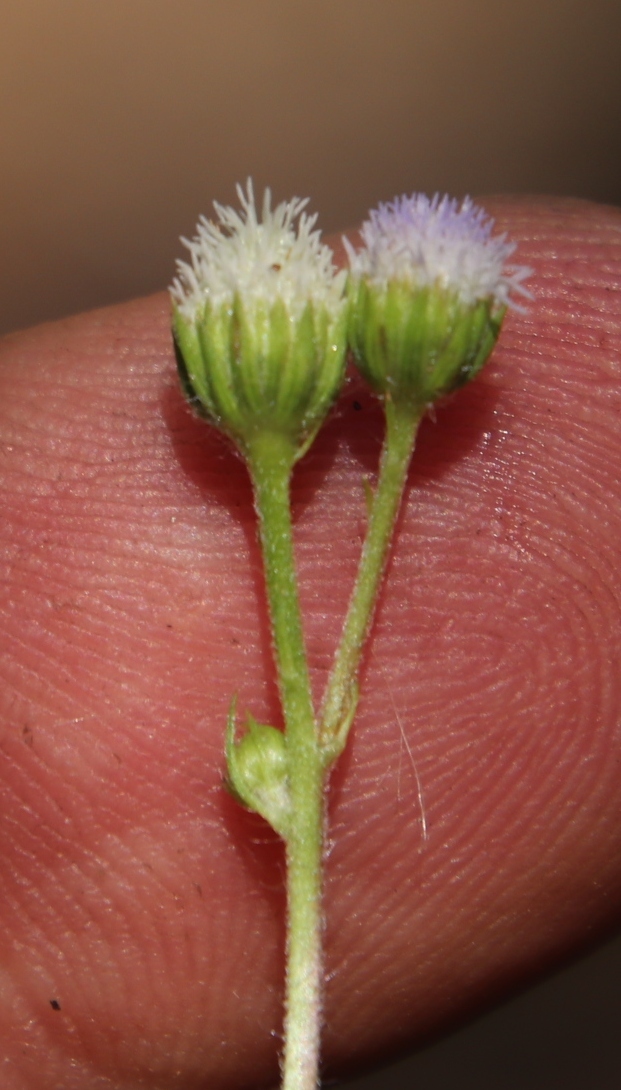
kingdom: Plantae
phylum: Tracheophyta
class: Magnoliopsida
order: Asterales
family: Asteraceae
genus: Ageratum
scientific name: Ageratum conyzoides
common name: Tropical whiteweed
